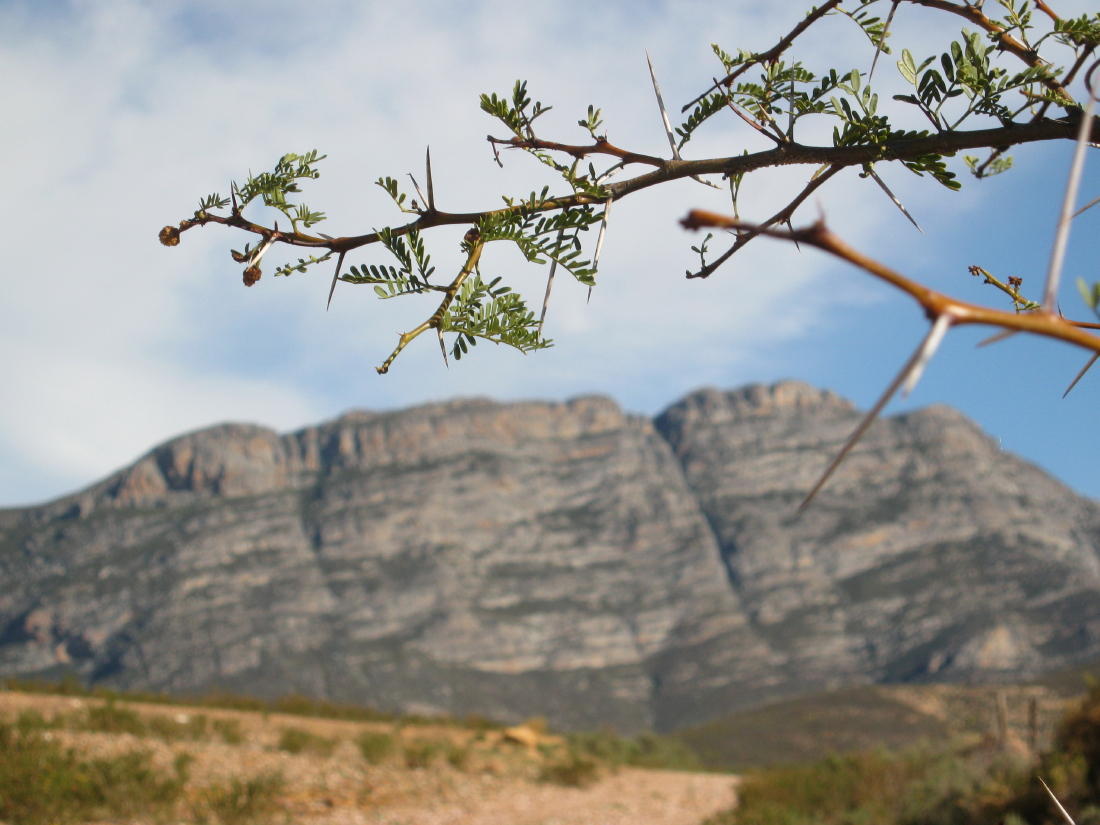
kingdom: Plantae
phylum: Tracheophyta
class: Magnoliopsida
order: Fabales
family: Fabaceae
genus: Vachellia
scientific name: Vachellia karroo
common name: Sweet thorn
